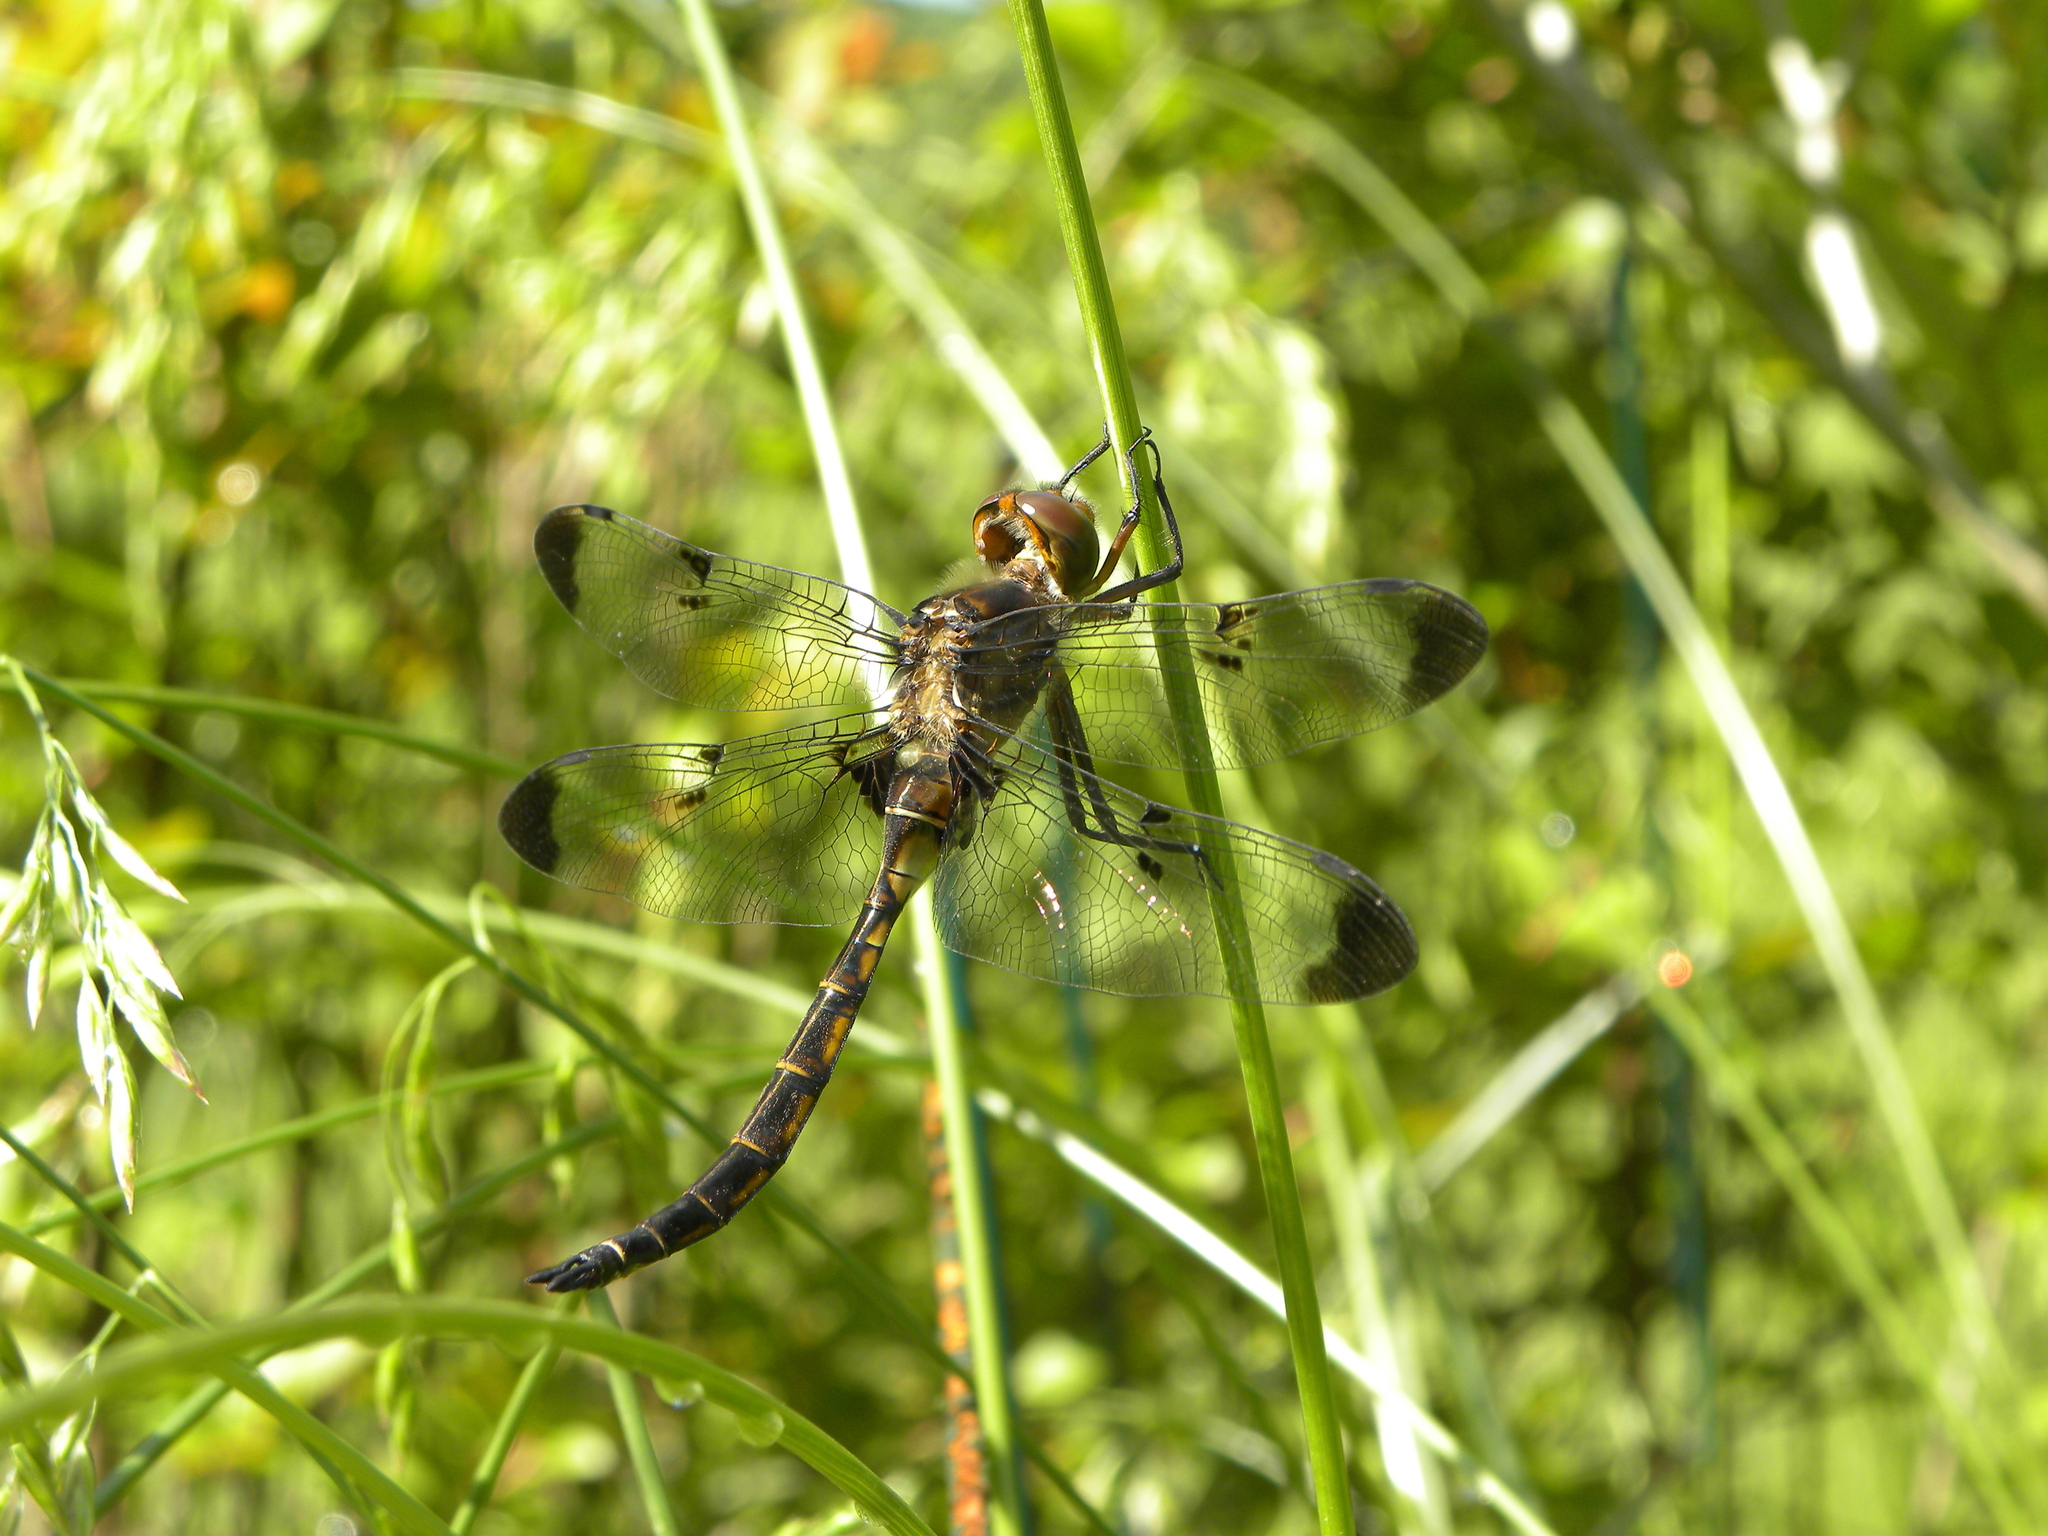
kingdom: Animalia
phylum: Arthropoda
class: Insecta
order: Odonata
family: Corduliidae
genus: Epitheca
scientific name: Epitheca princeps
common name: Prince baskettail
